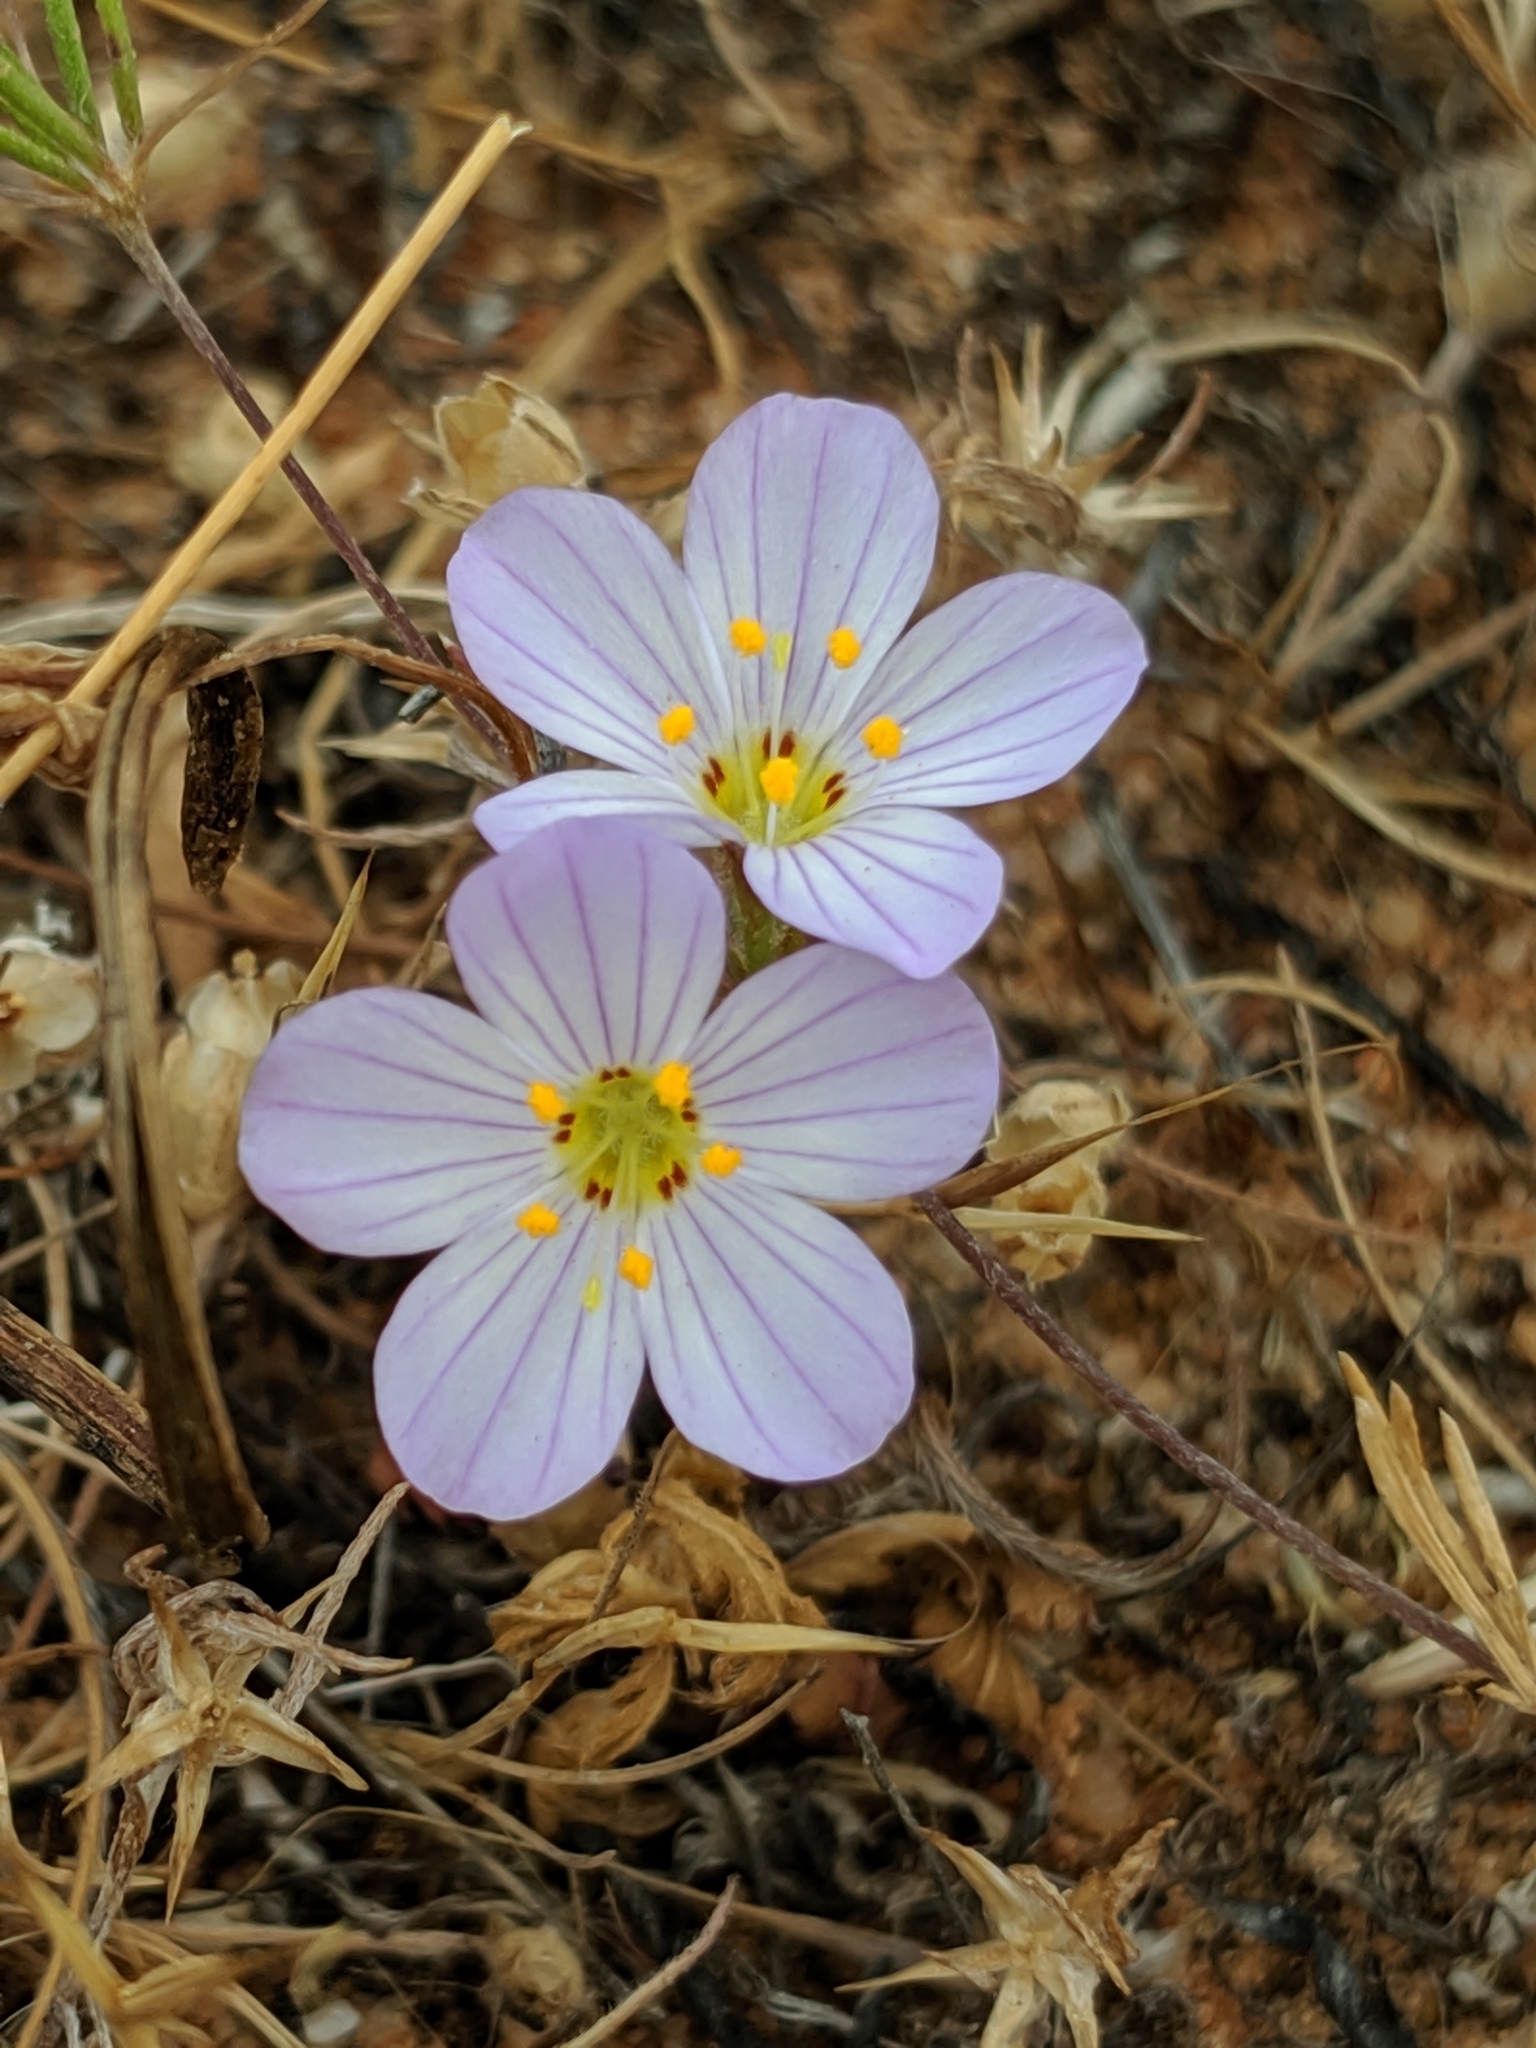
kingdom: Plantae
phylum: Tracheophyta
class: Magnoliopsida
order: Ericales
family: Polemoniaceae
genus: Leptosiphon
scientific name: Leptosiphon liniflorus
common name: Narrowflower flaxflower
